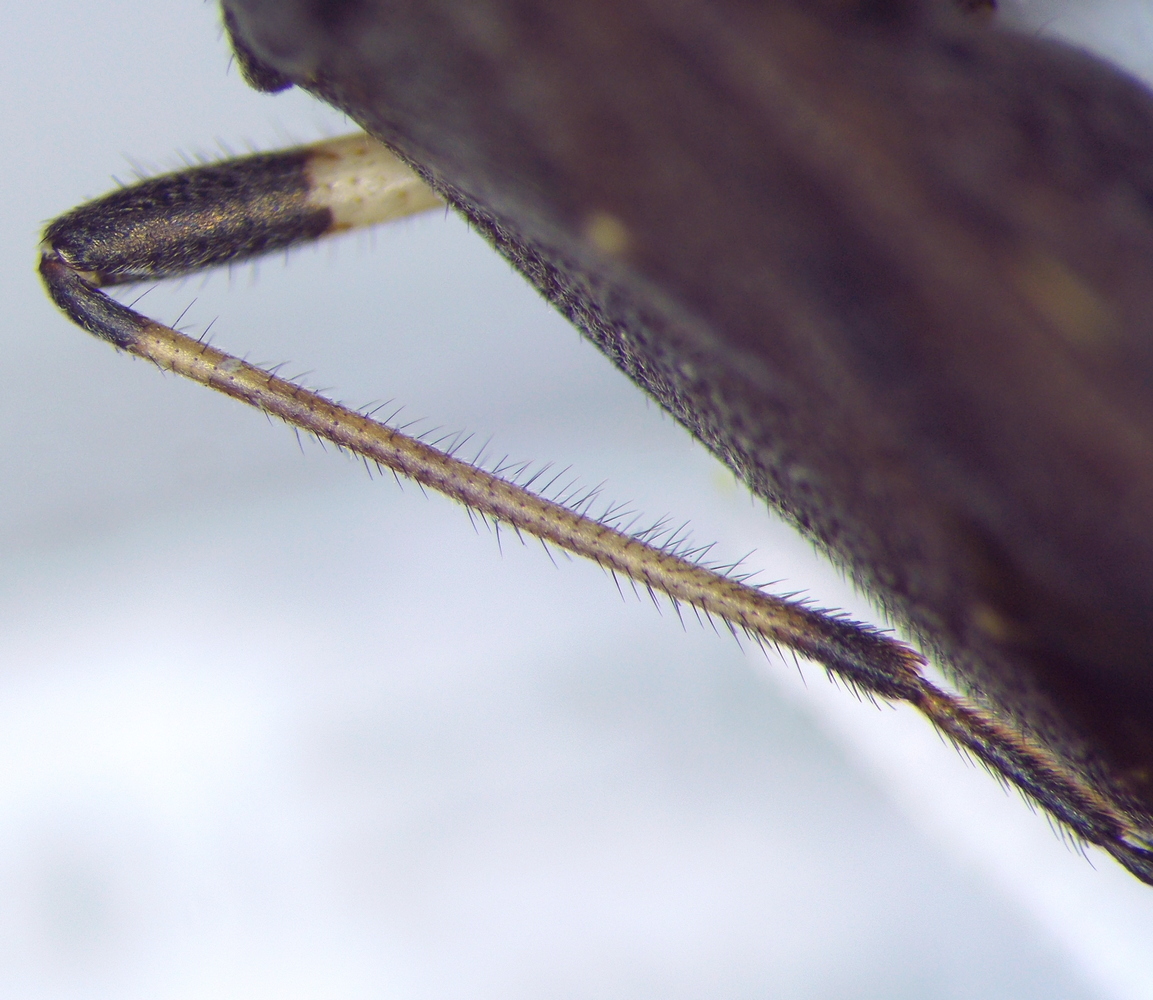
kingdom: Animalia
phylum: Arthropoda
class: Insecta
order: Hemiptera
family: Stenocephalidae
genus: Dicranocephalus
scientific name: Dicranocephalus albipes
